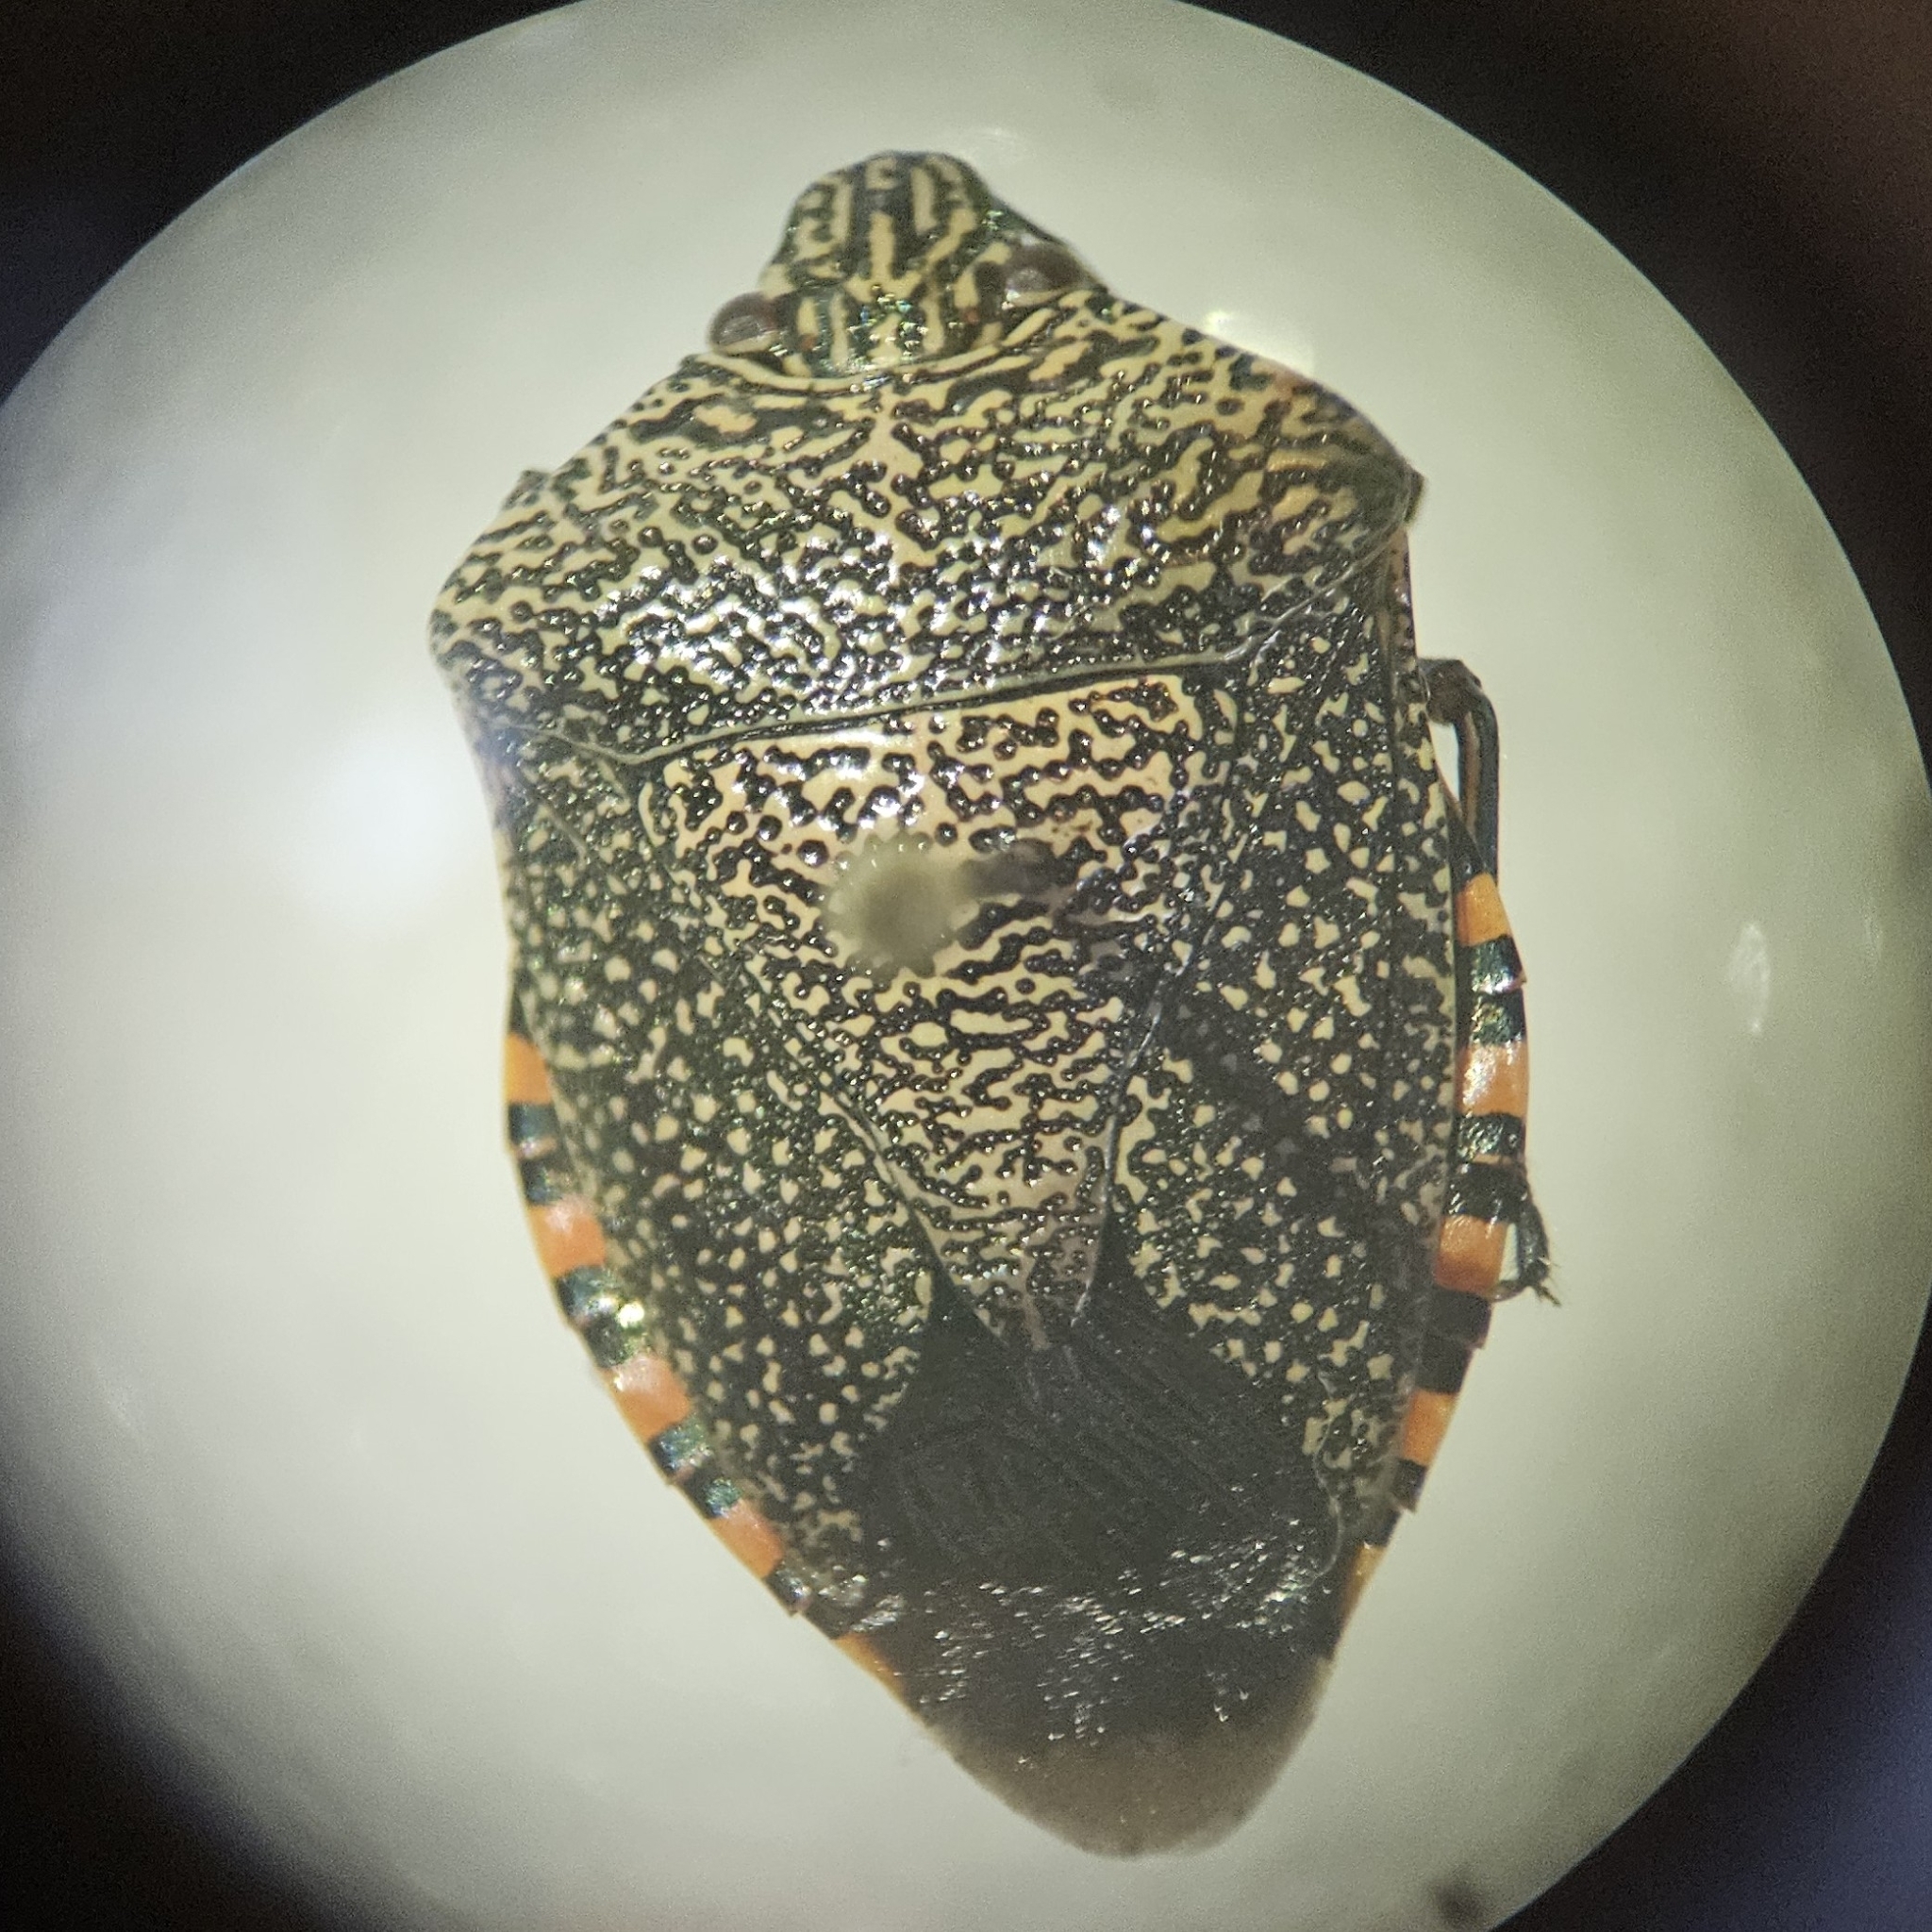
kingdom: Animalia
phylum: Arthropoda
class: Insecta
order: Hemiptera
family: Pentatomidae
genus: Pellaea
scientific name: Pellaea stictica
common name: Stink bug
